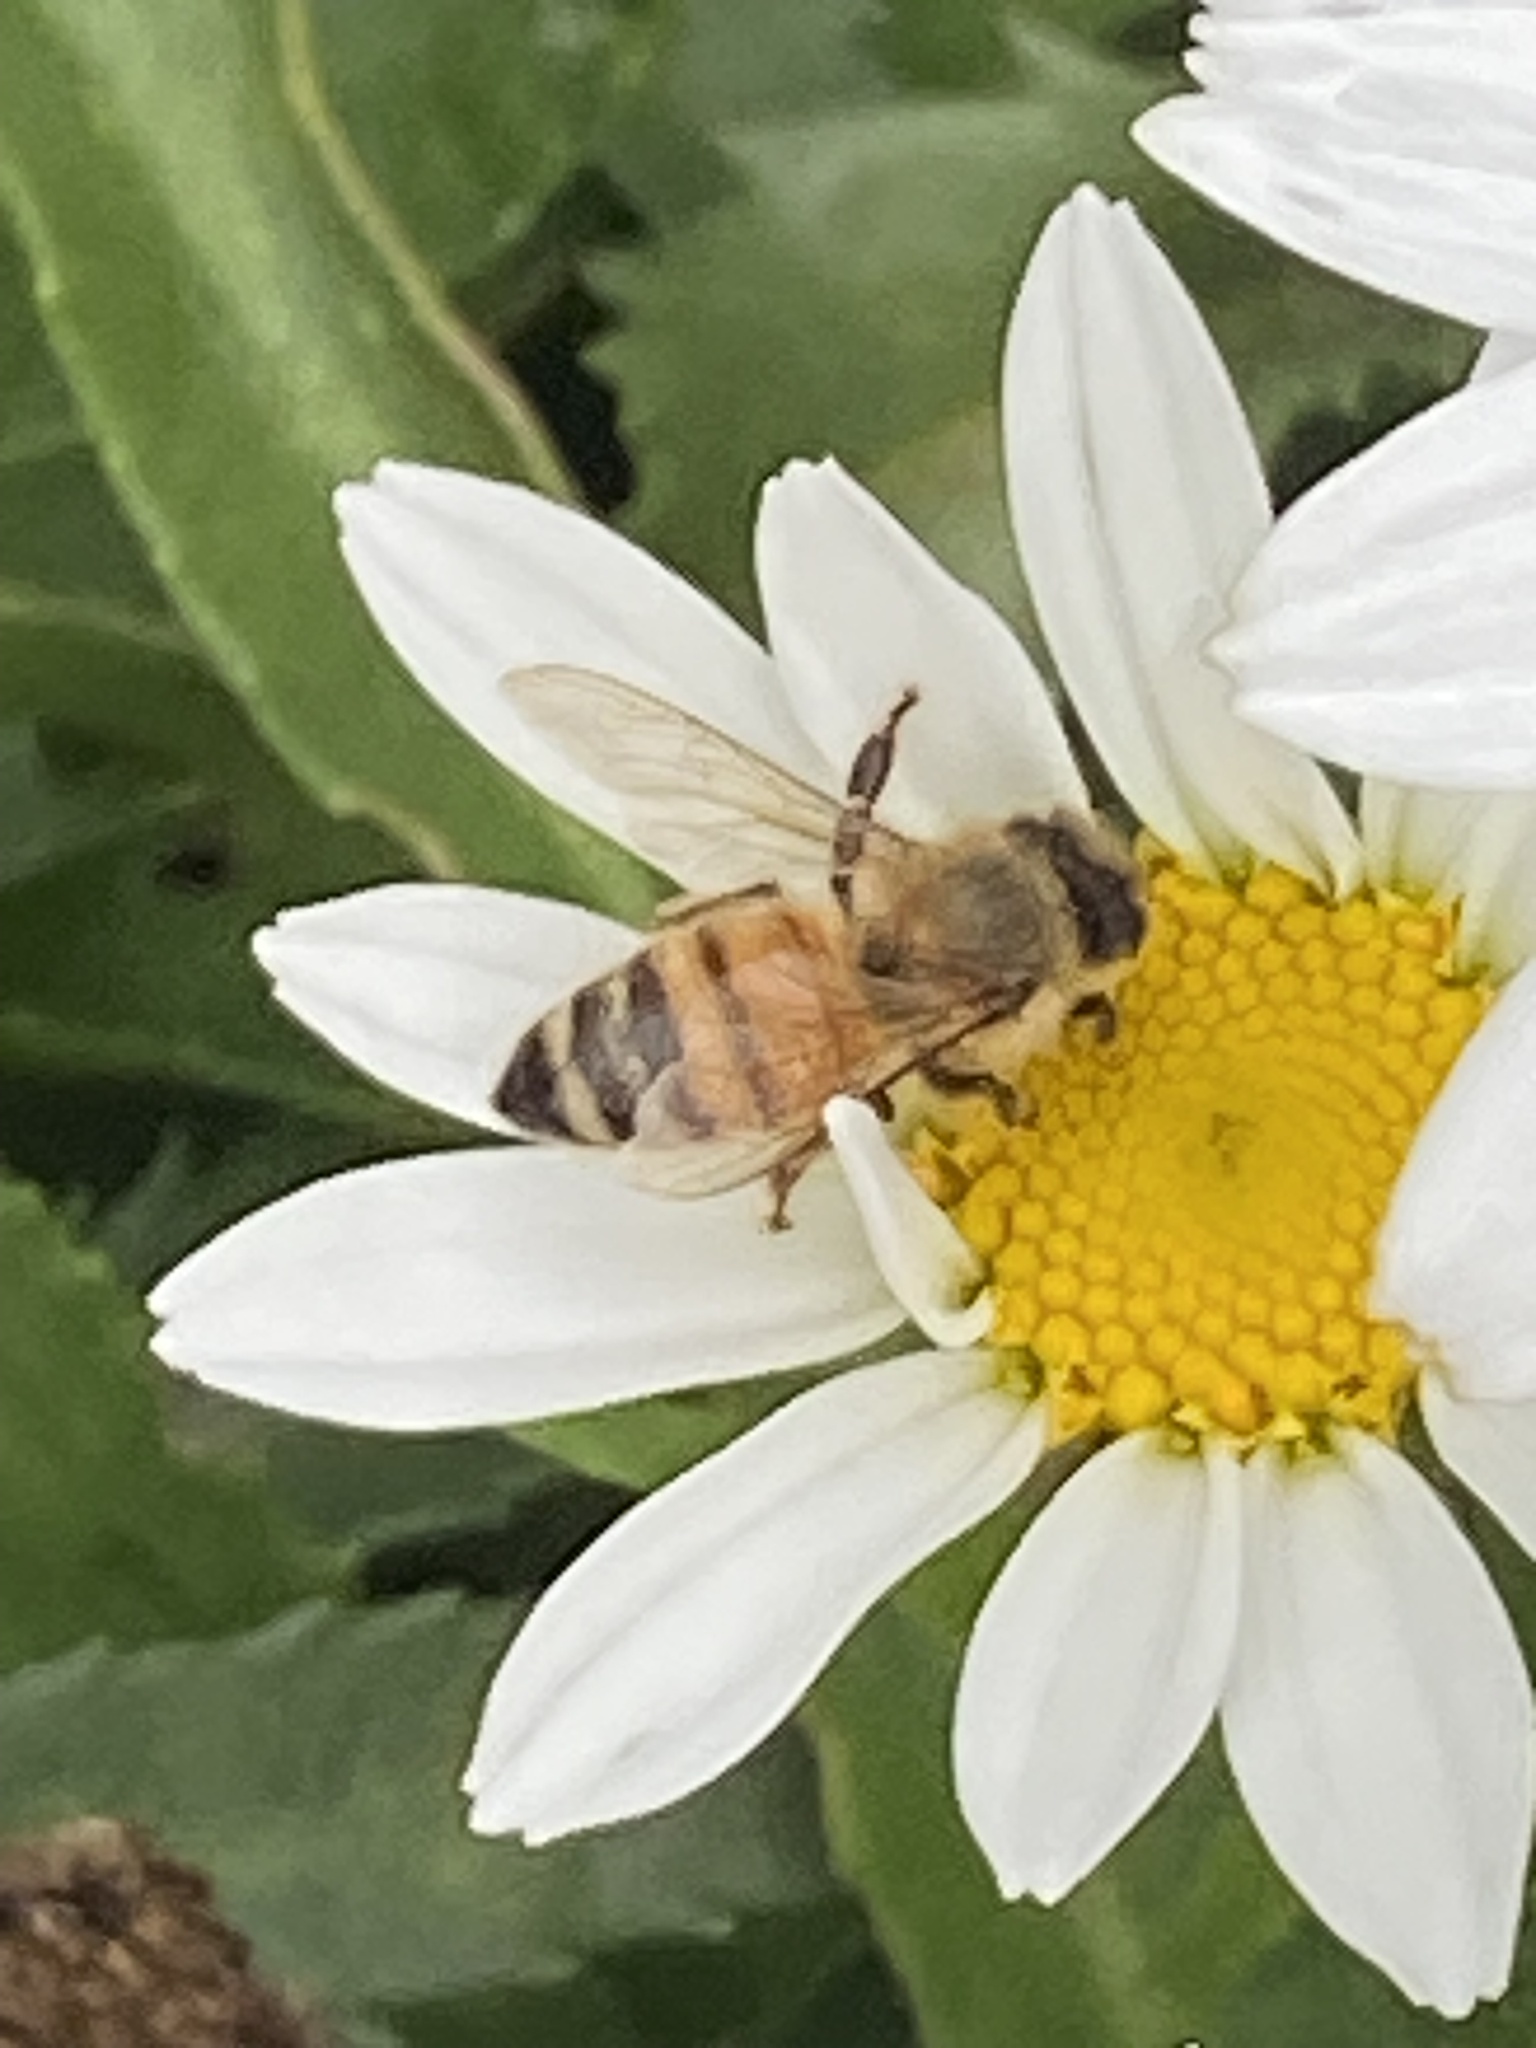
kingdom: Animalia
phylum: Arthropoda
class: Insecta
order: Hymenoptera
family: Apidae
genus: Apis
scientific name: Apis mellifera
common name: Honey bee
